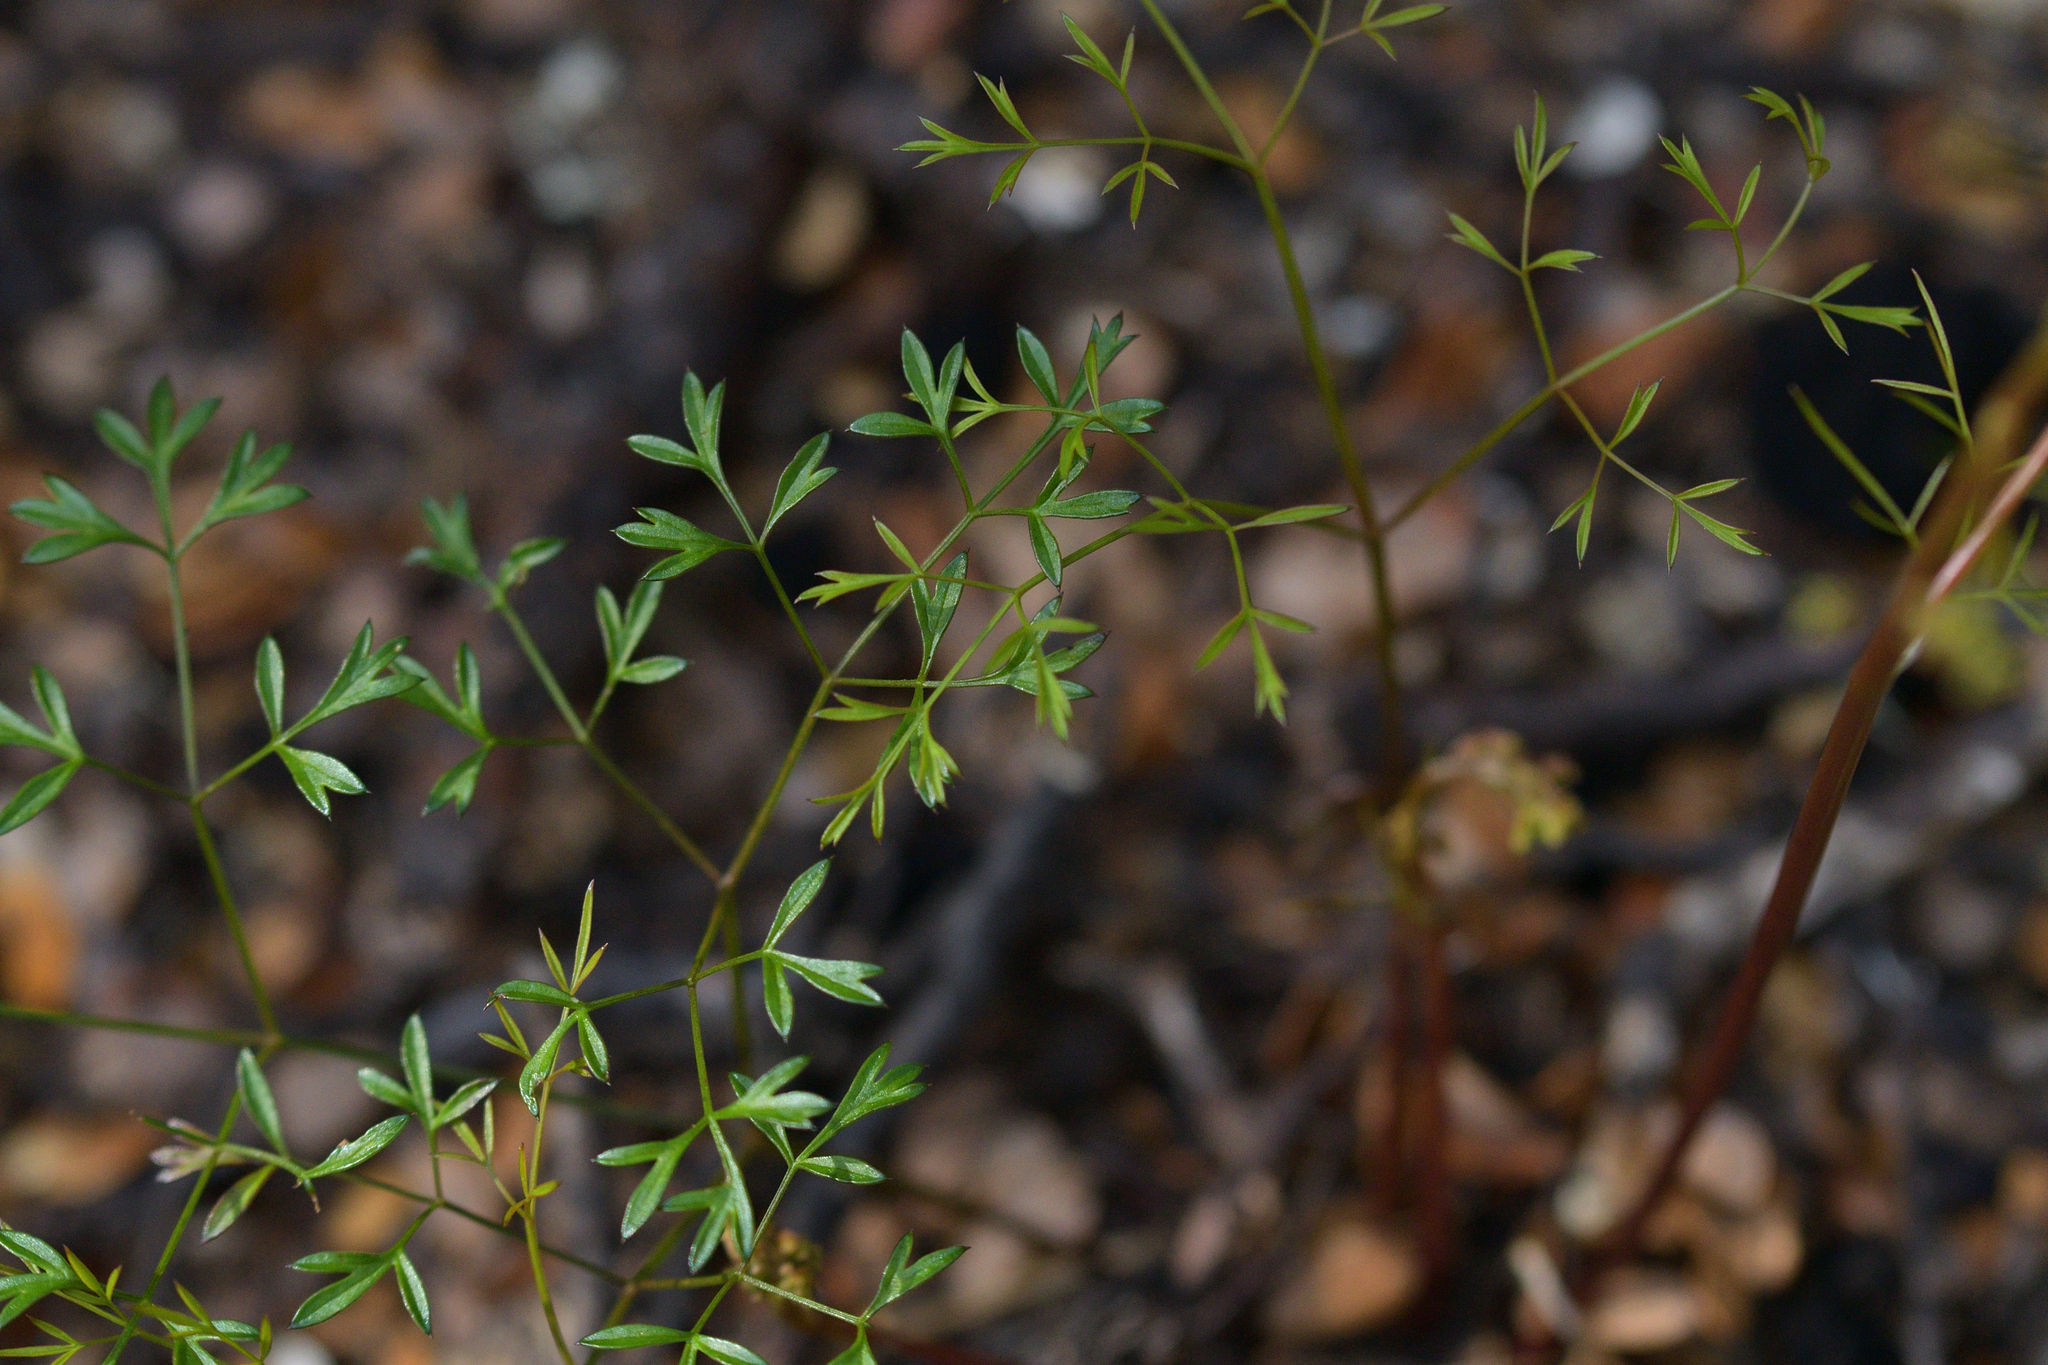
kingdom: Plantae
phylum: Tracheophyta
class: Magnoliopsida
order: Apiales
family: Apiaceae
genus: Anisotome
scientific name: Anisotome filifolia
